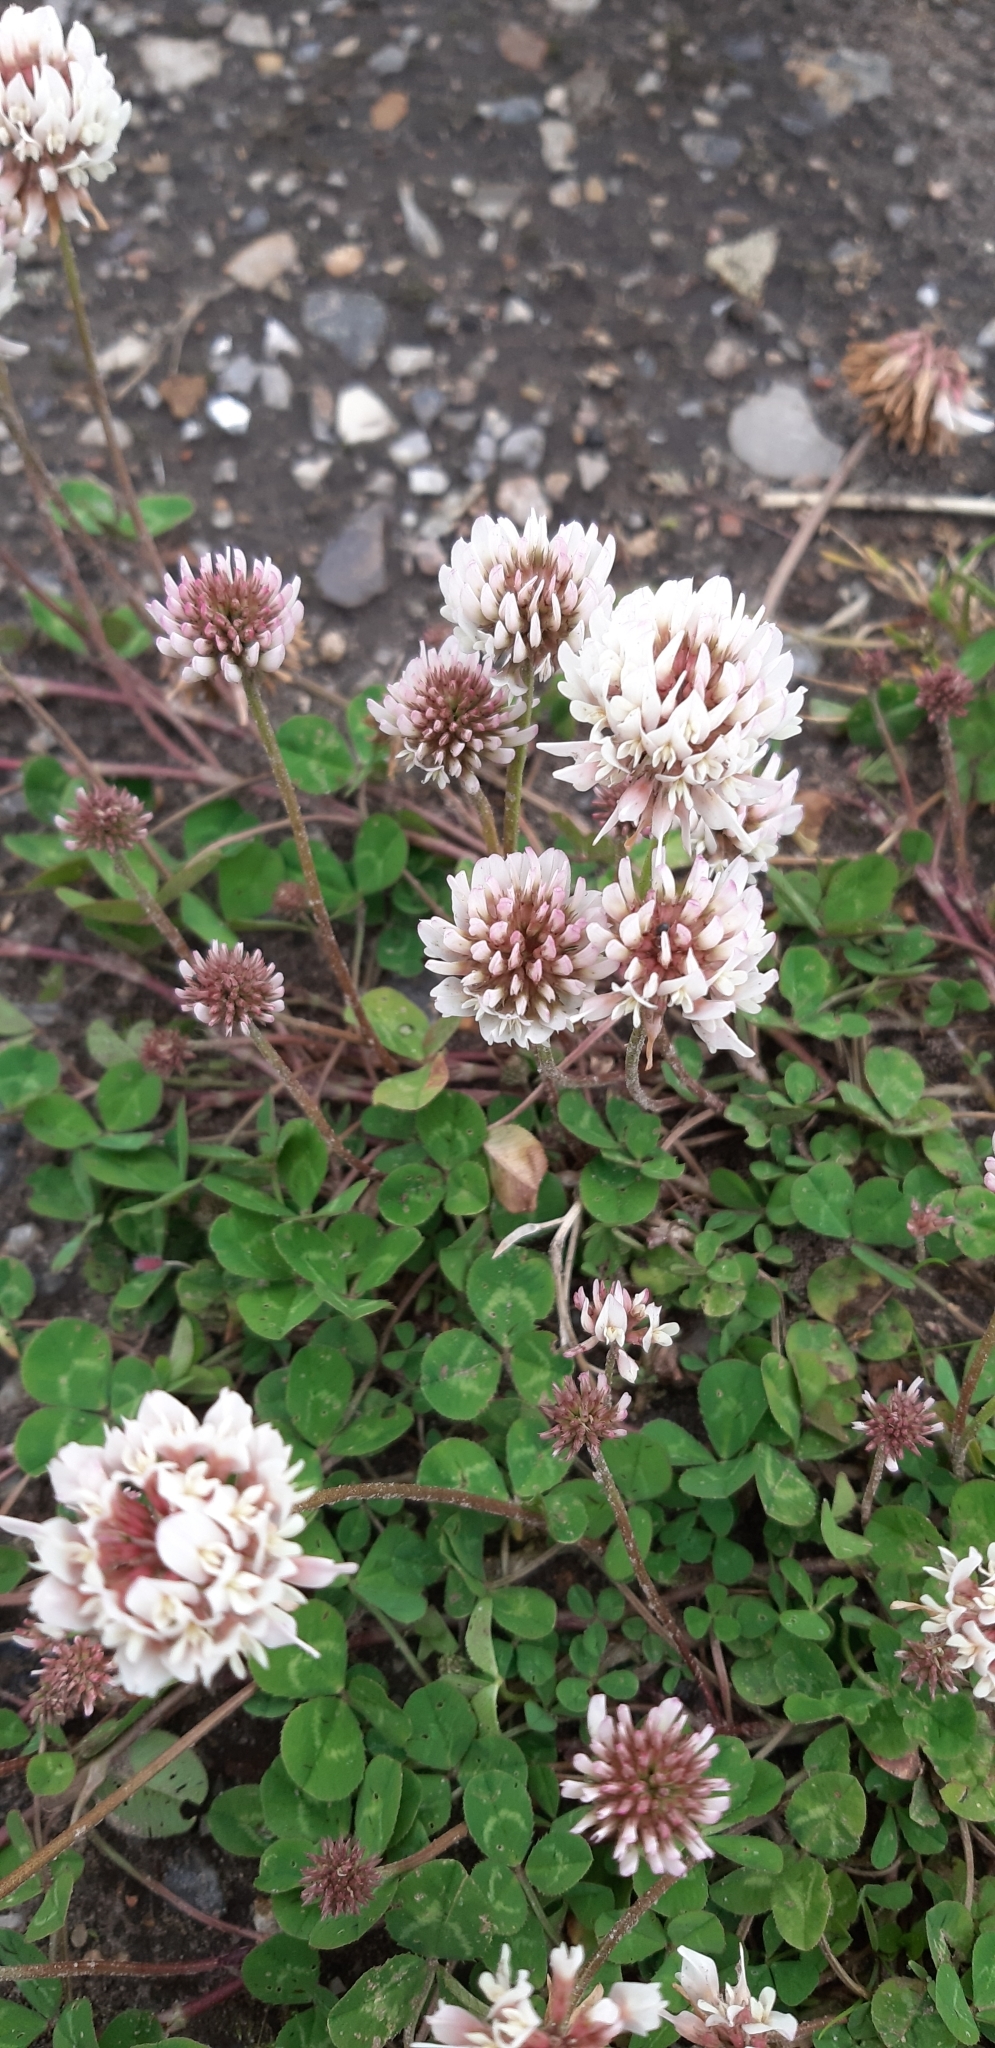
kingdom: Plantae
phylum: Tracheophyta
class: Magnoliopsida
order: Fabales
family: Fabaceae
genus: Trifolium
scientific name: Trifolium repens
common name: White clover
